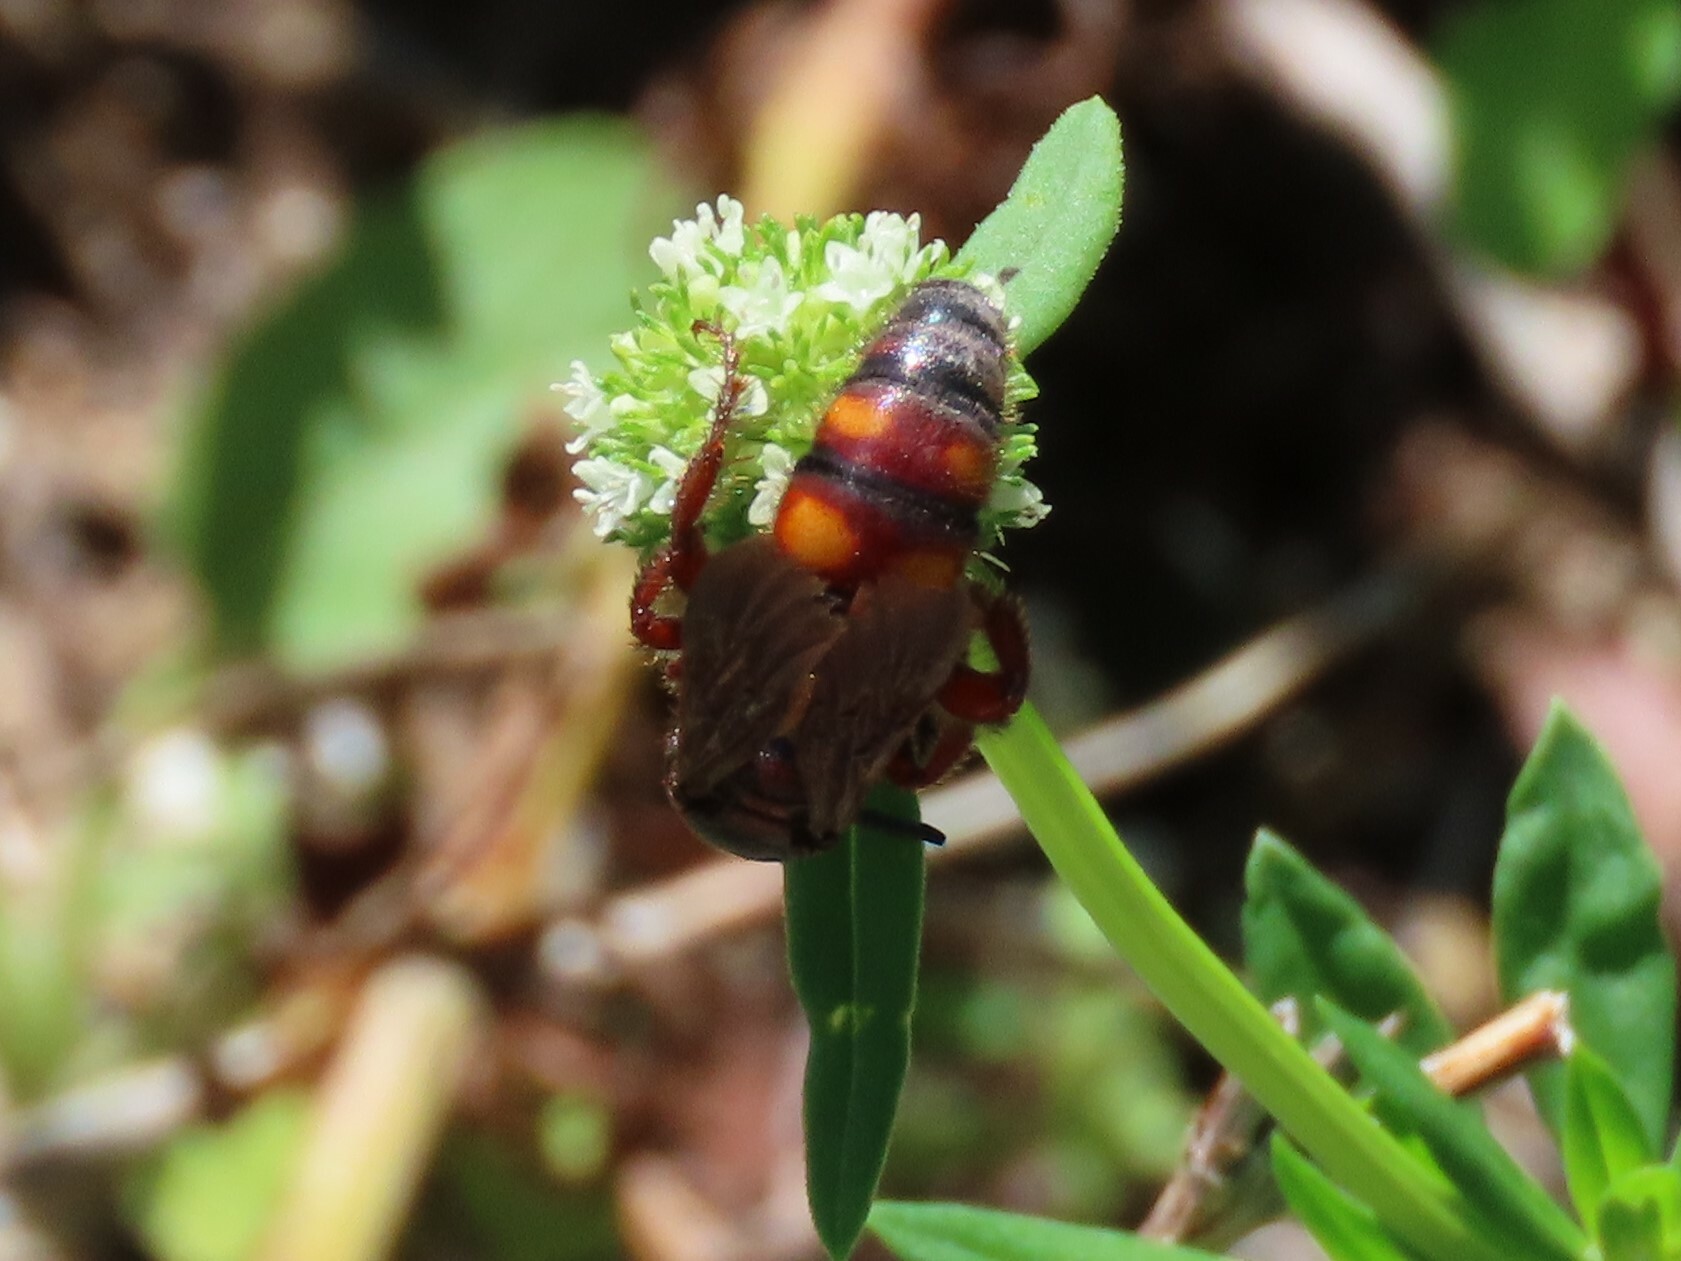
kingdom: Animalia
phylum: Arthropoda
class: Insecta
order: Hymenoptera
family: Scoliidae
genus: Scolia
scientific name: Scolia nobilitata
